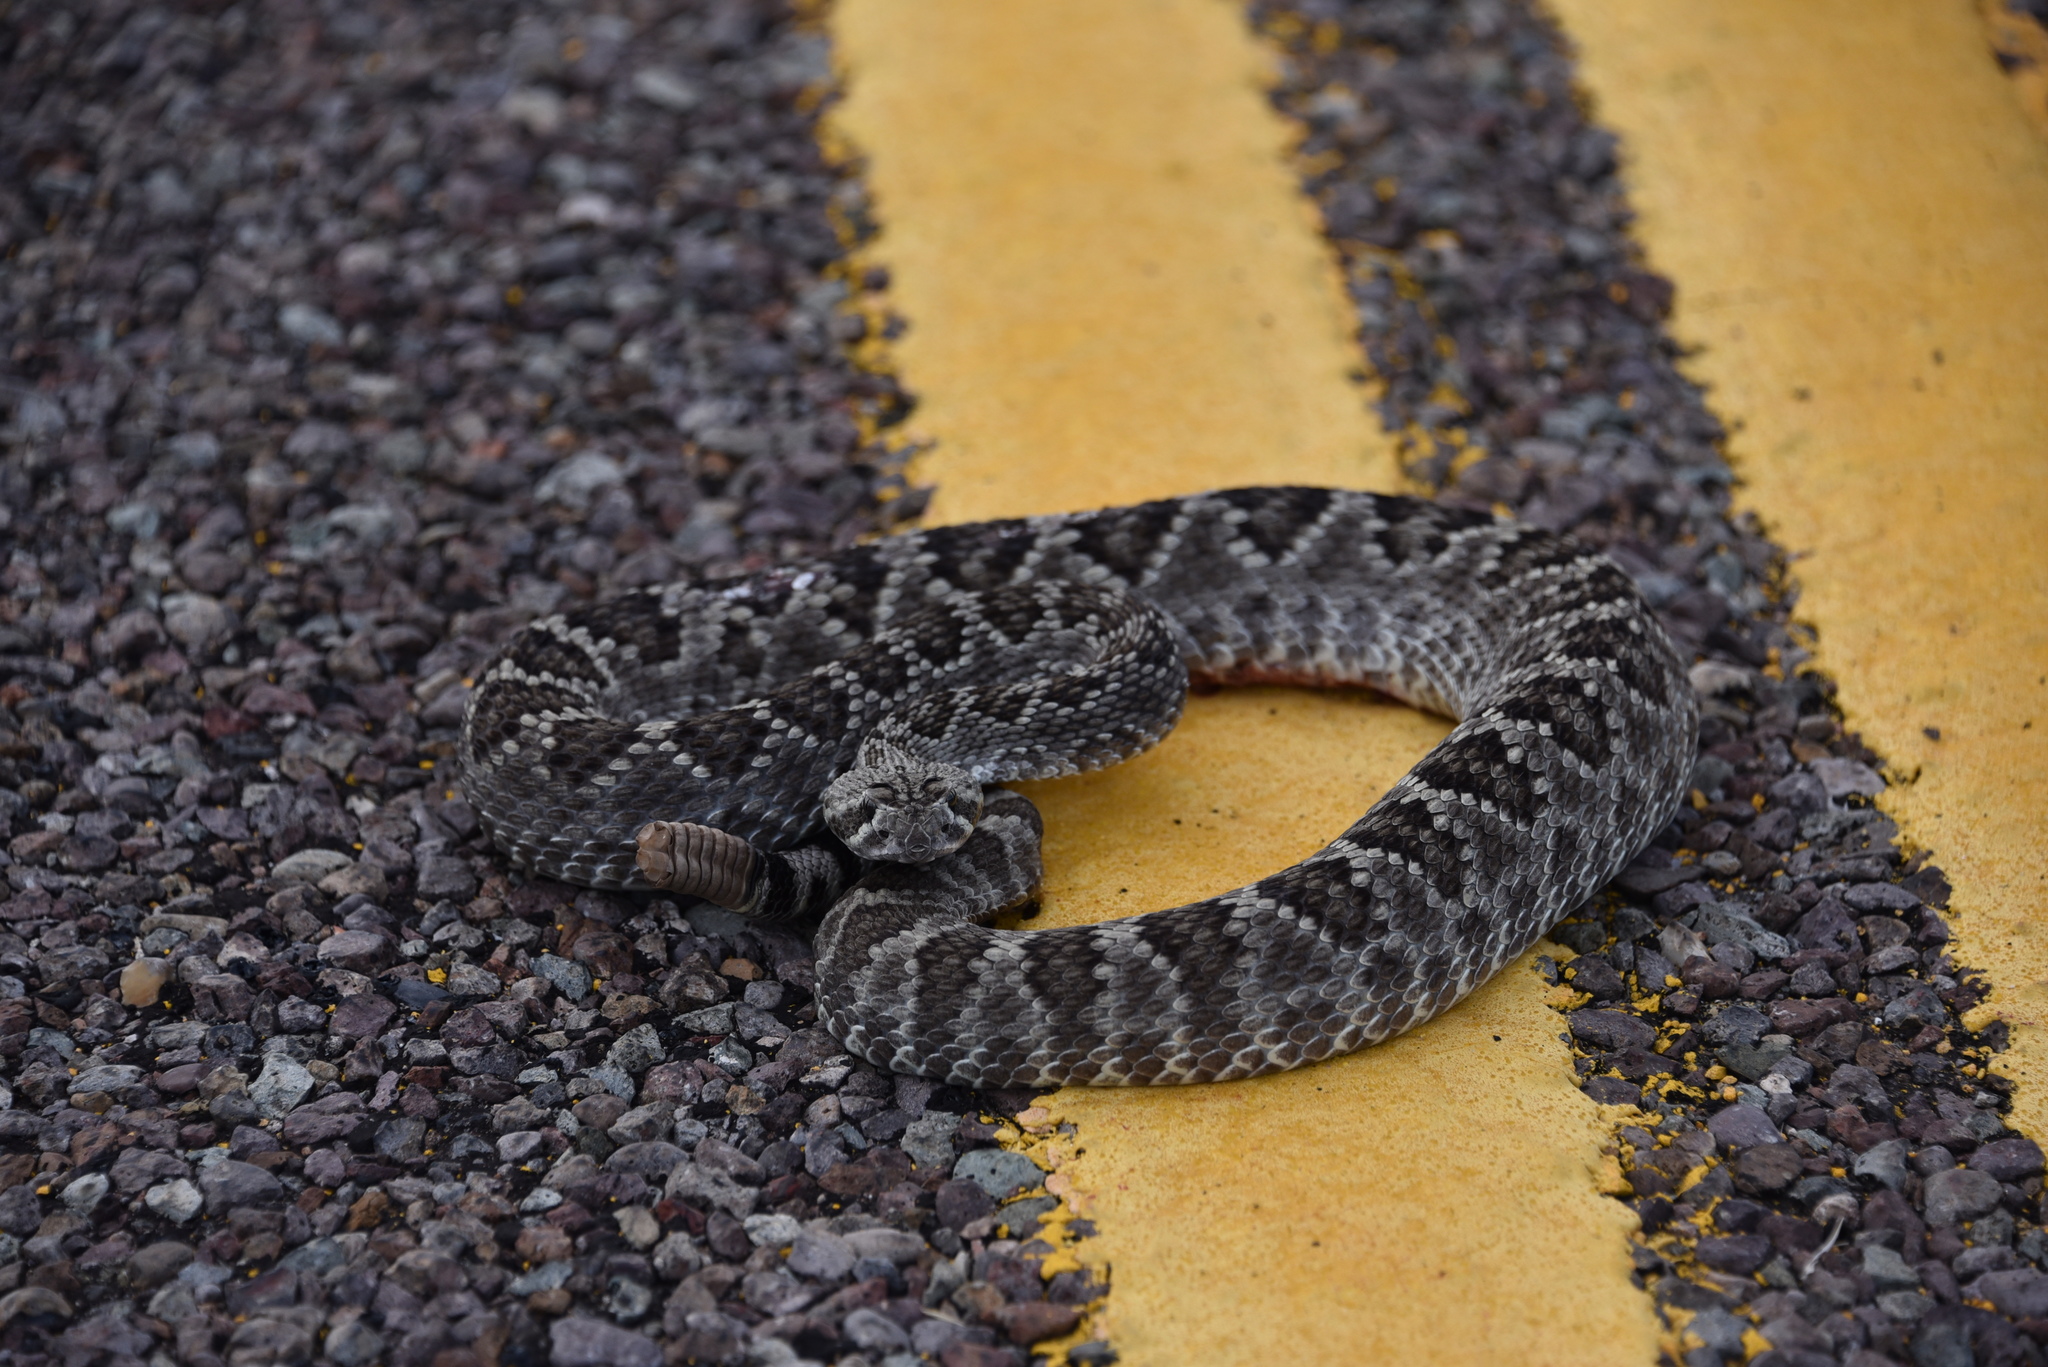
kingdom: Animalia
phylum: Chordata
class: Squamata
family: Viperidae
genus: Crotalus
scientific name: Crotalus scutulatus
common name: Scutulatus
